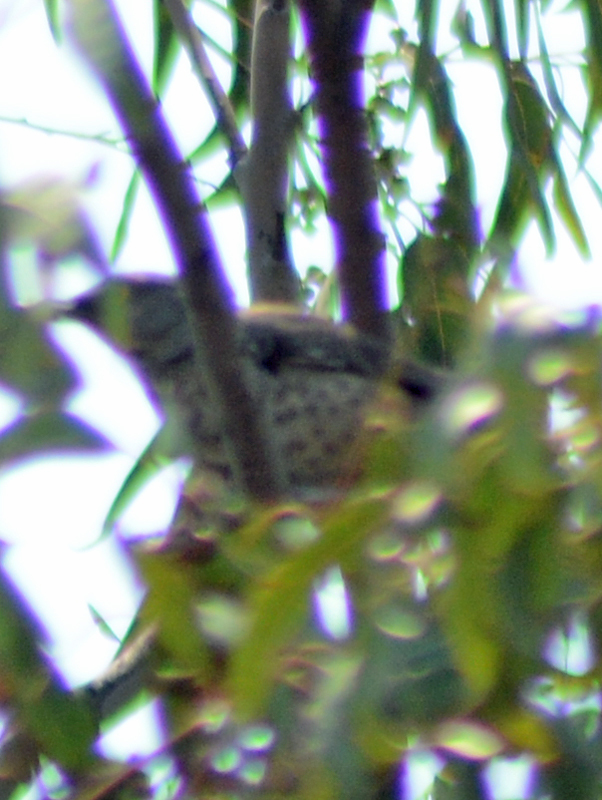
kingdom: Animalia
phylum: Chordata
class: Aves
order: Passeriformes
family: Mimidae
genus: Toxostoma
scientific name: Toxostoma ocellatum
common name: Ocellated thrasher
